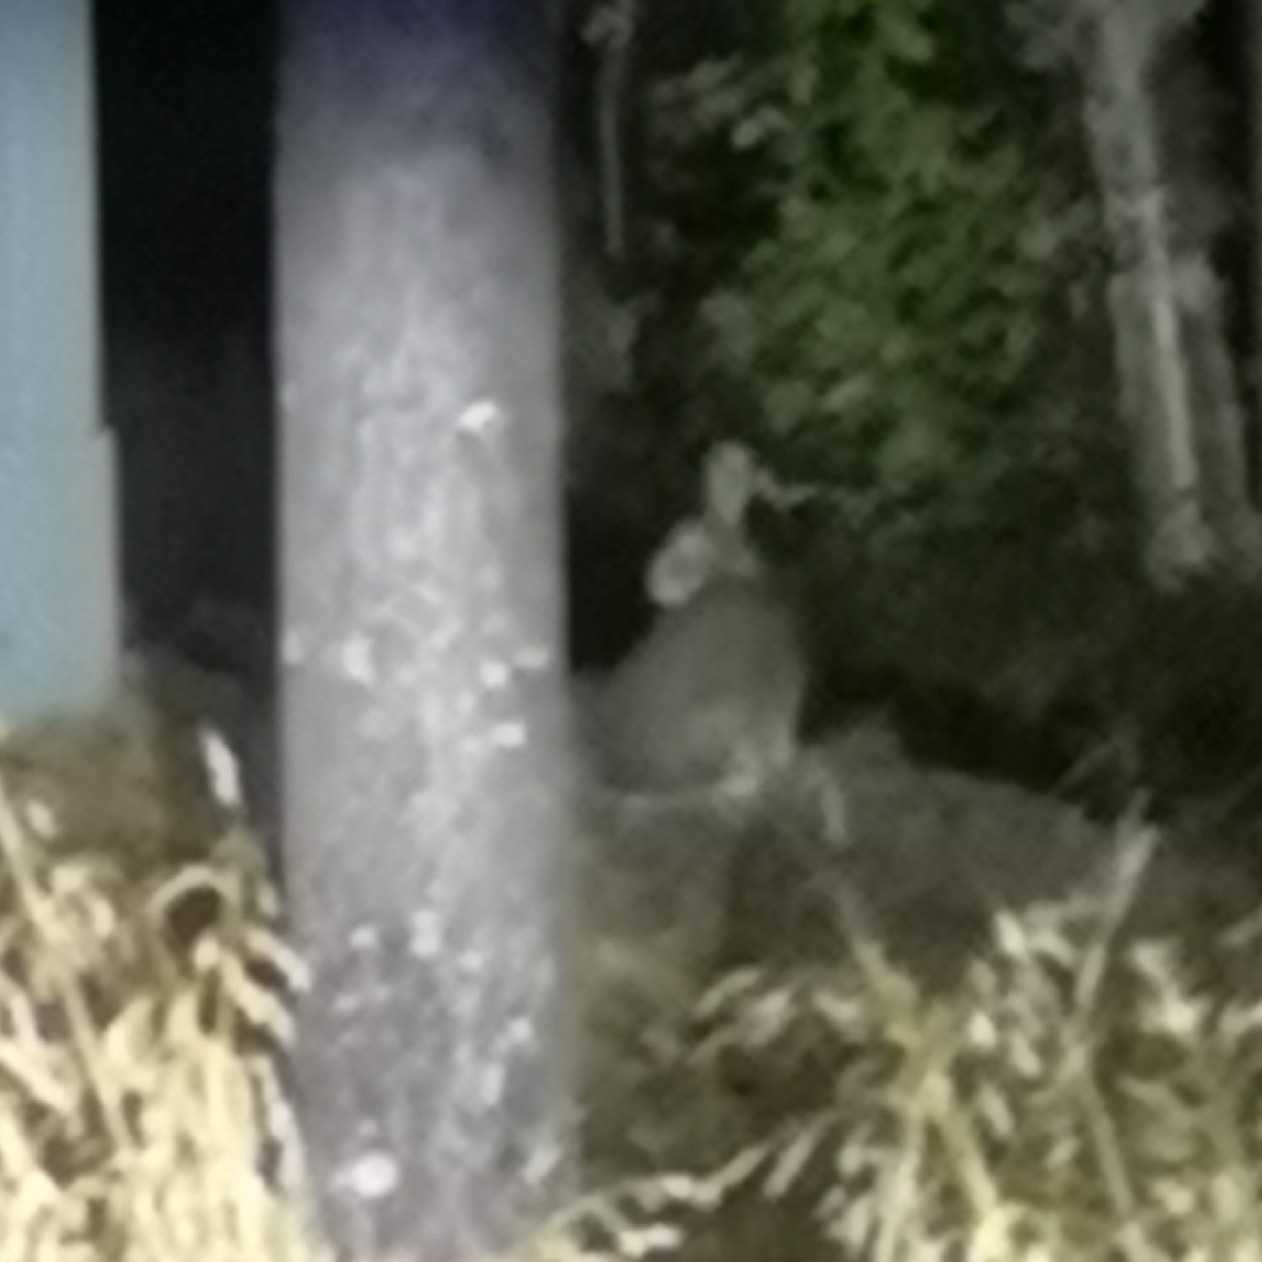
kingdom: Animalia
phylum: Chordata
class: Mammalia
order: Lagomorpha
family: Leporidae
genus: Lepus
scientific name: Lepus timidus
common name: Mountain hare
